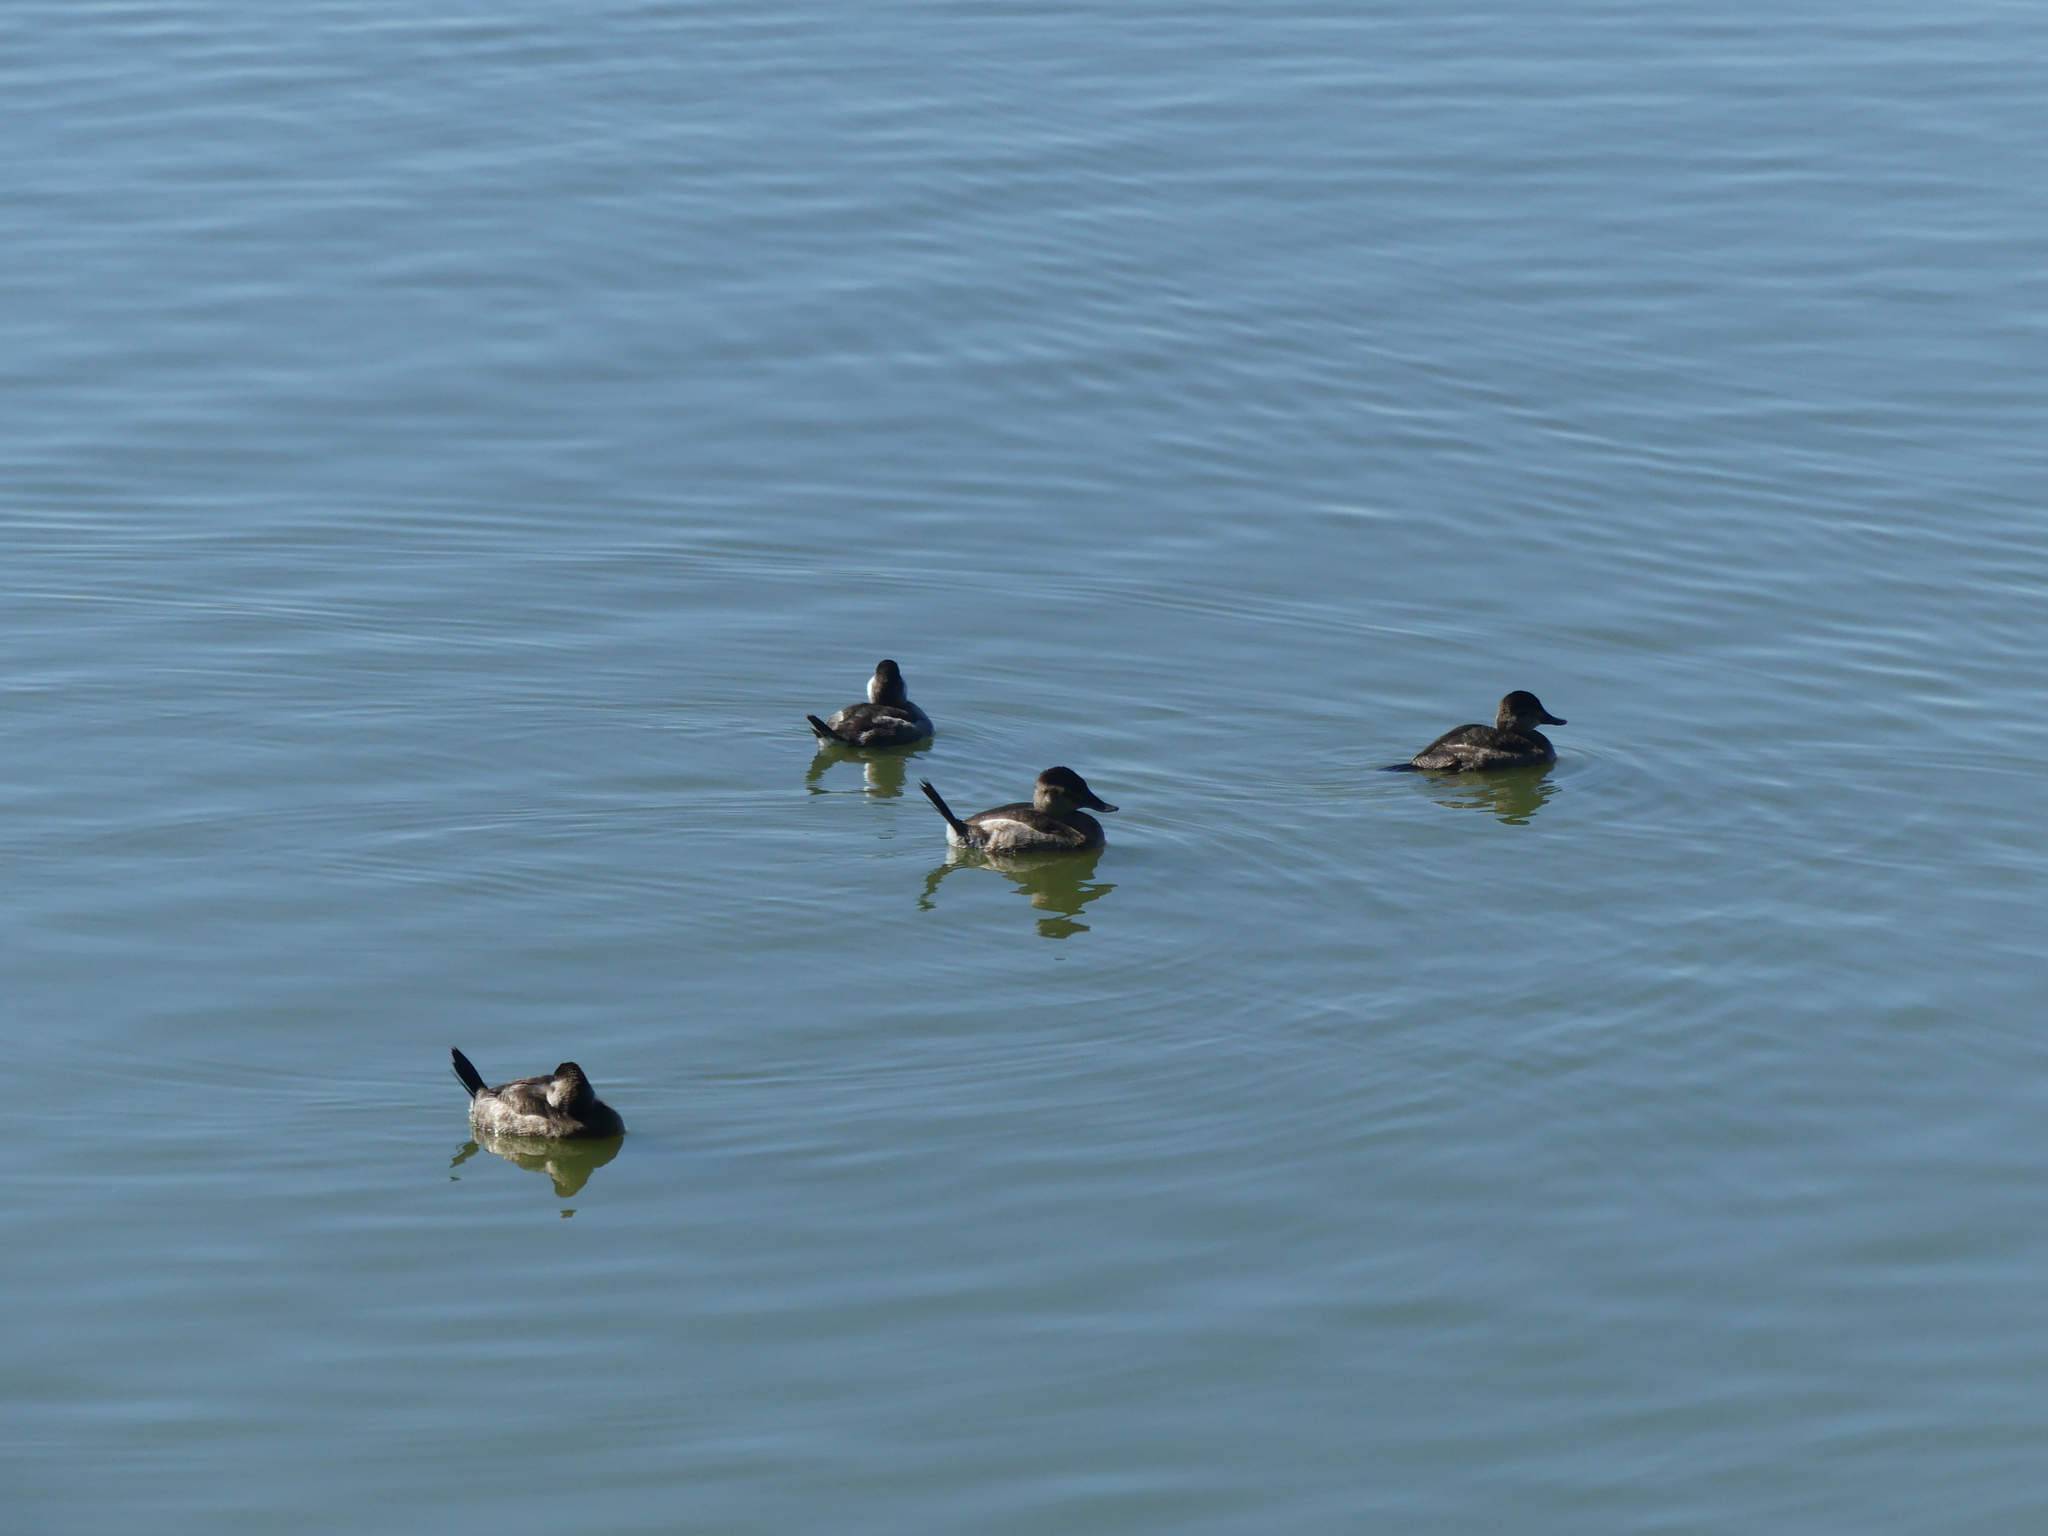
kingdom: Animalia
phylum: Chordata
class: Aves
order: Anseriformes
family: Anatidae
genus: Oxyura
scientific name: Oxyura jamaicensis
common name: Ruddy duck
